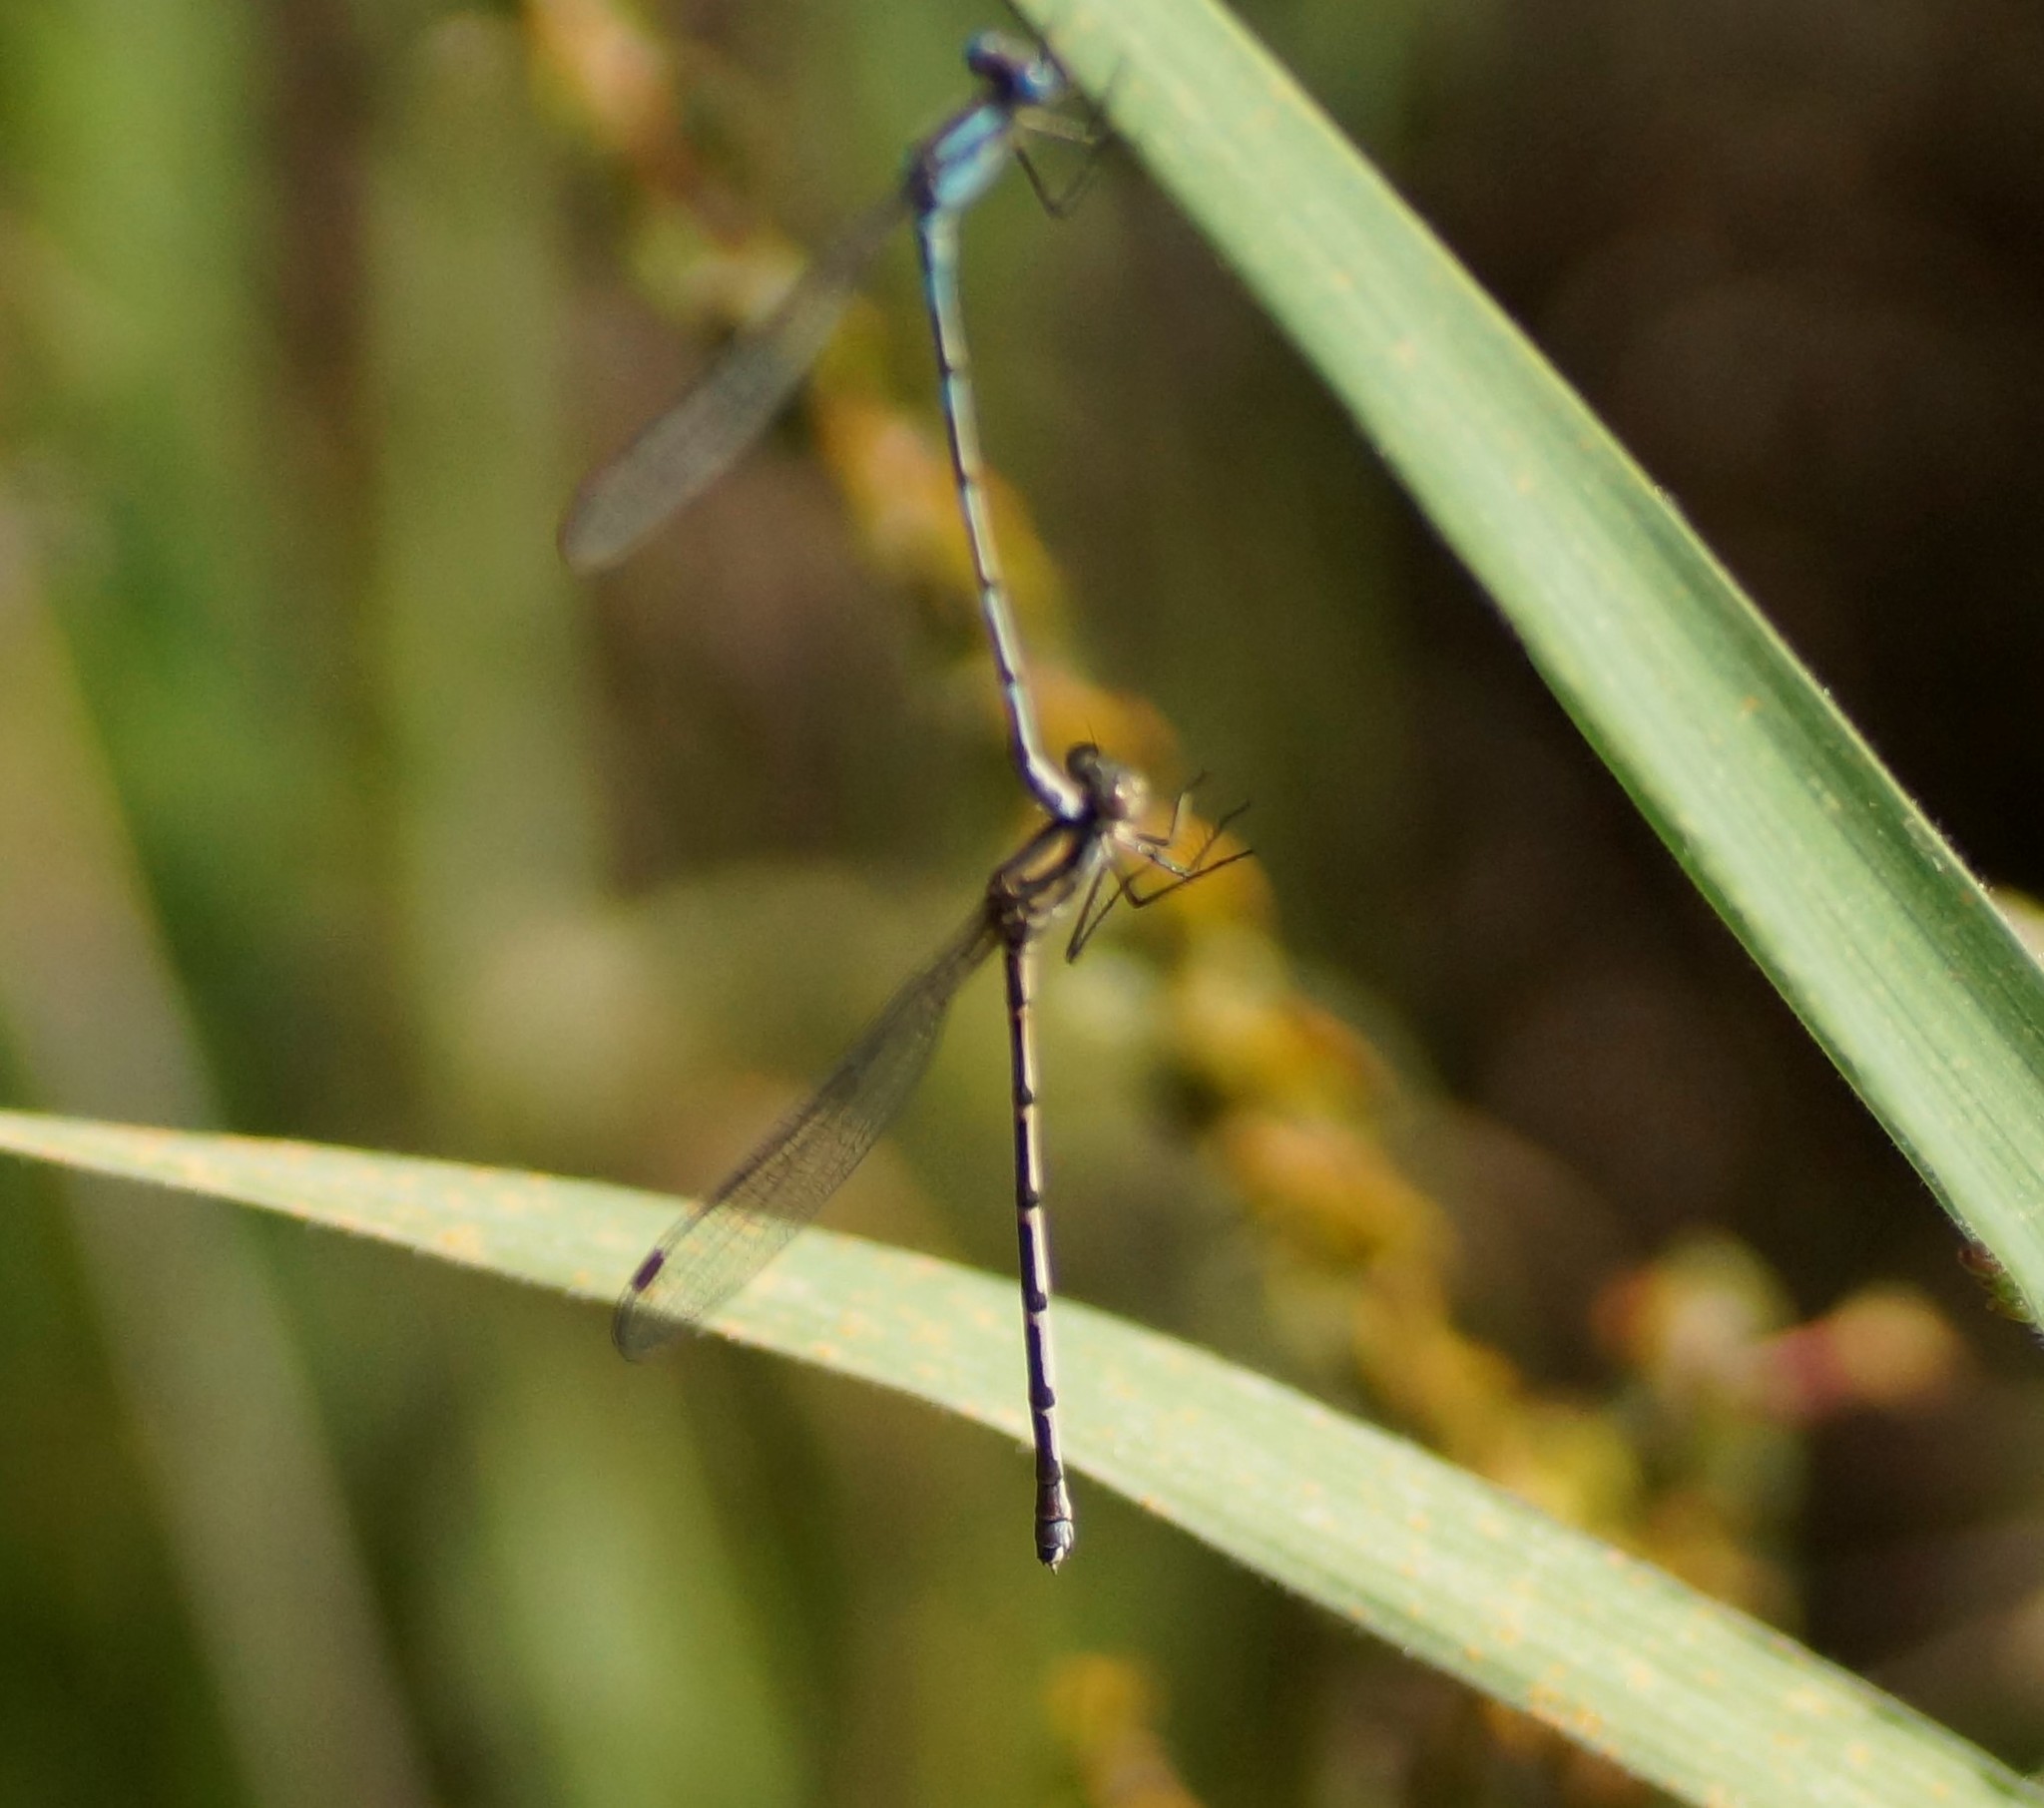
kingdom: Animalia
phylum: Arthropoda
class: Insecta
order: Odonata
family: Lestidae
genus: Austrolestes
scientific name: Austrolestes
